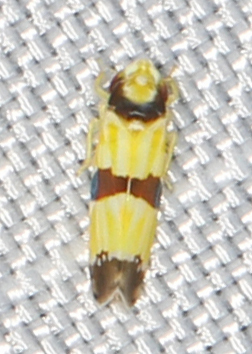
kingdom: Animalia
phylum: Arthropoda
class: Insecta
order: Hemiptera
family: Cicadellidae
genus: Erythroneura
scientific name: Erythroneura tricincta
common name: The threebanded grape leafhopper
